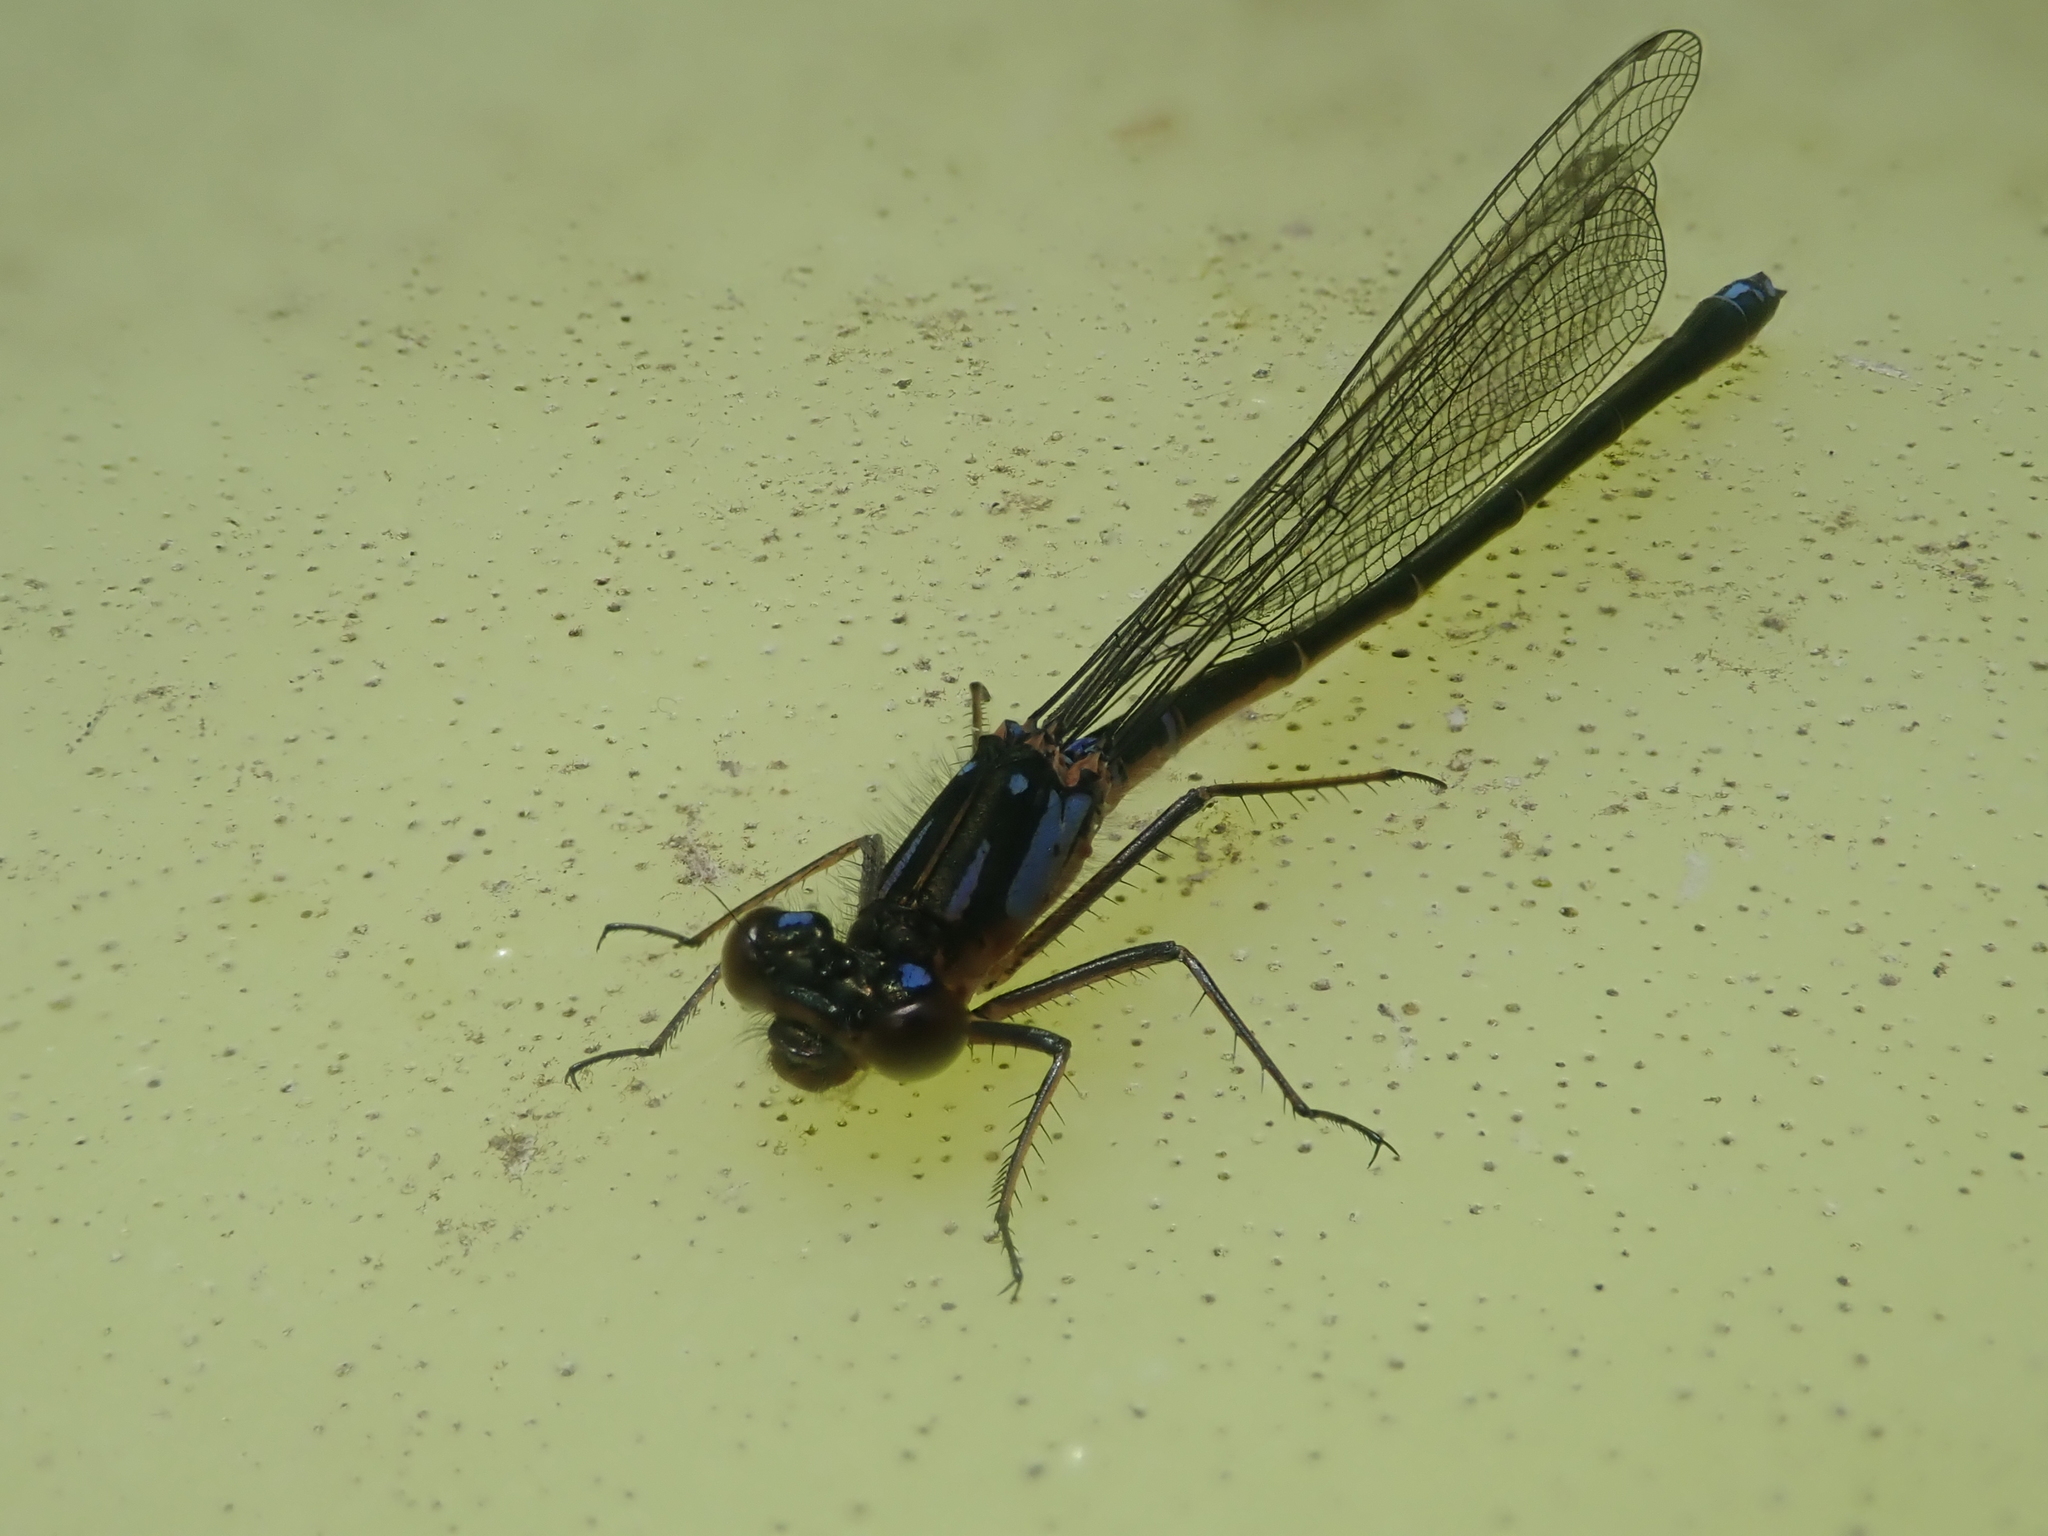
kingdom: Animalia
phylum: Arthropoda
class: Insecta
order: Odonata
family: Coenagrionidae
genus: Cyanallagma
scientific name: Cyanallagma interruptum
